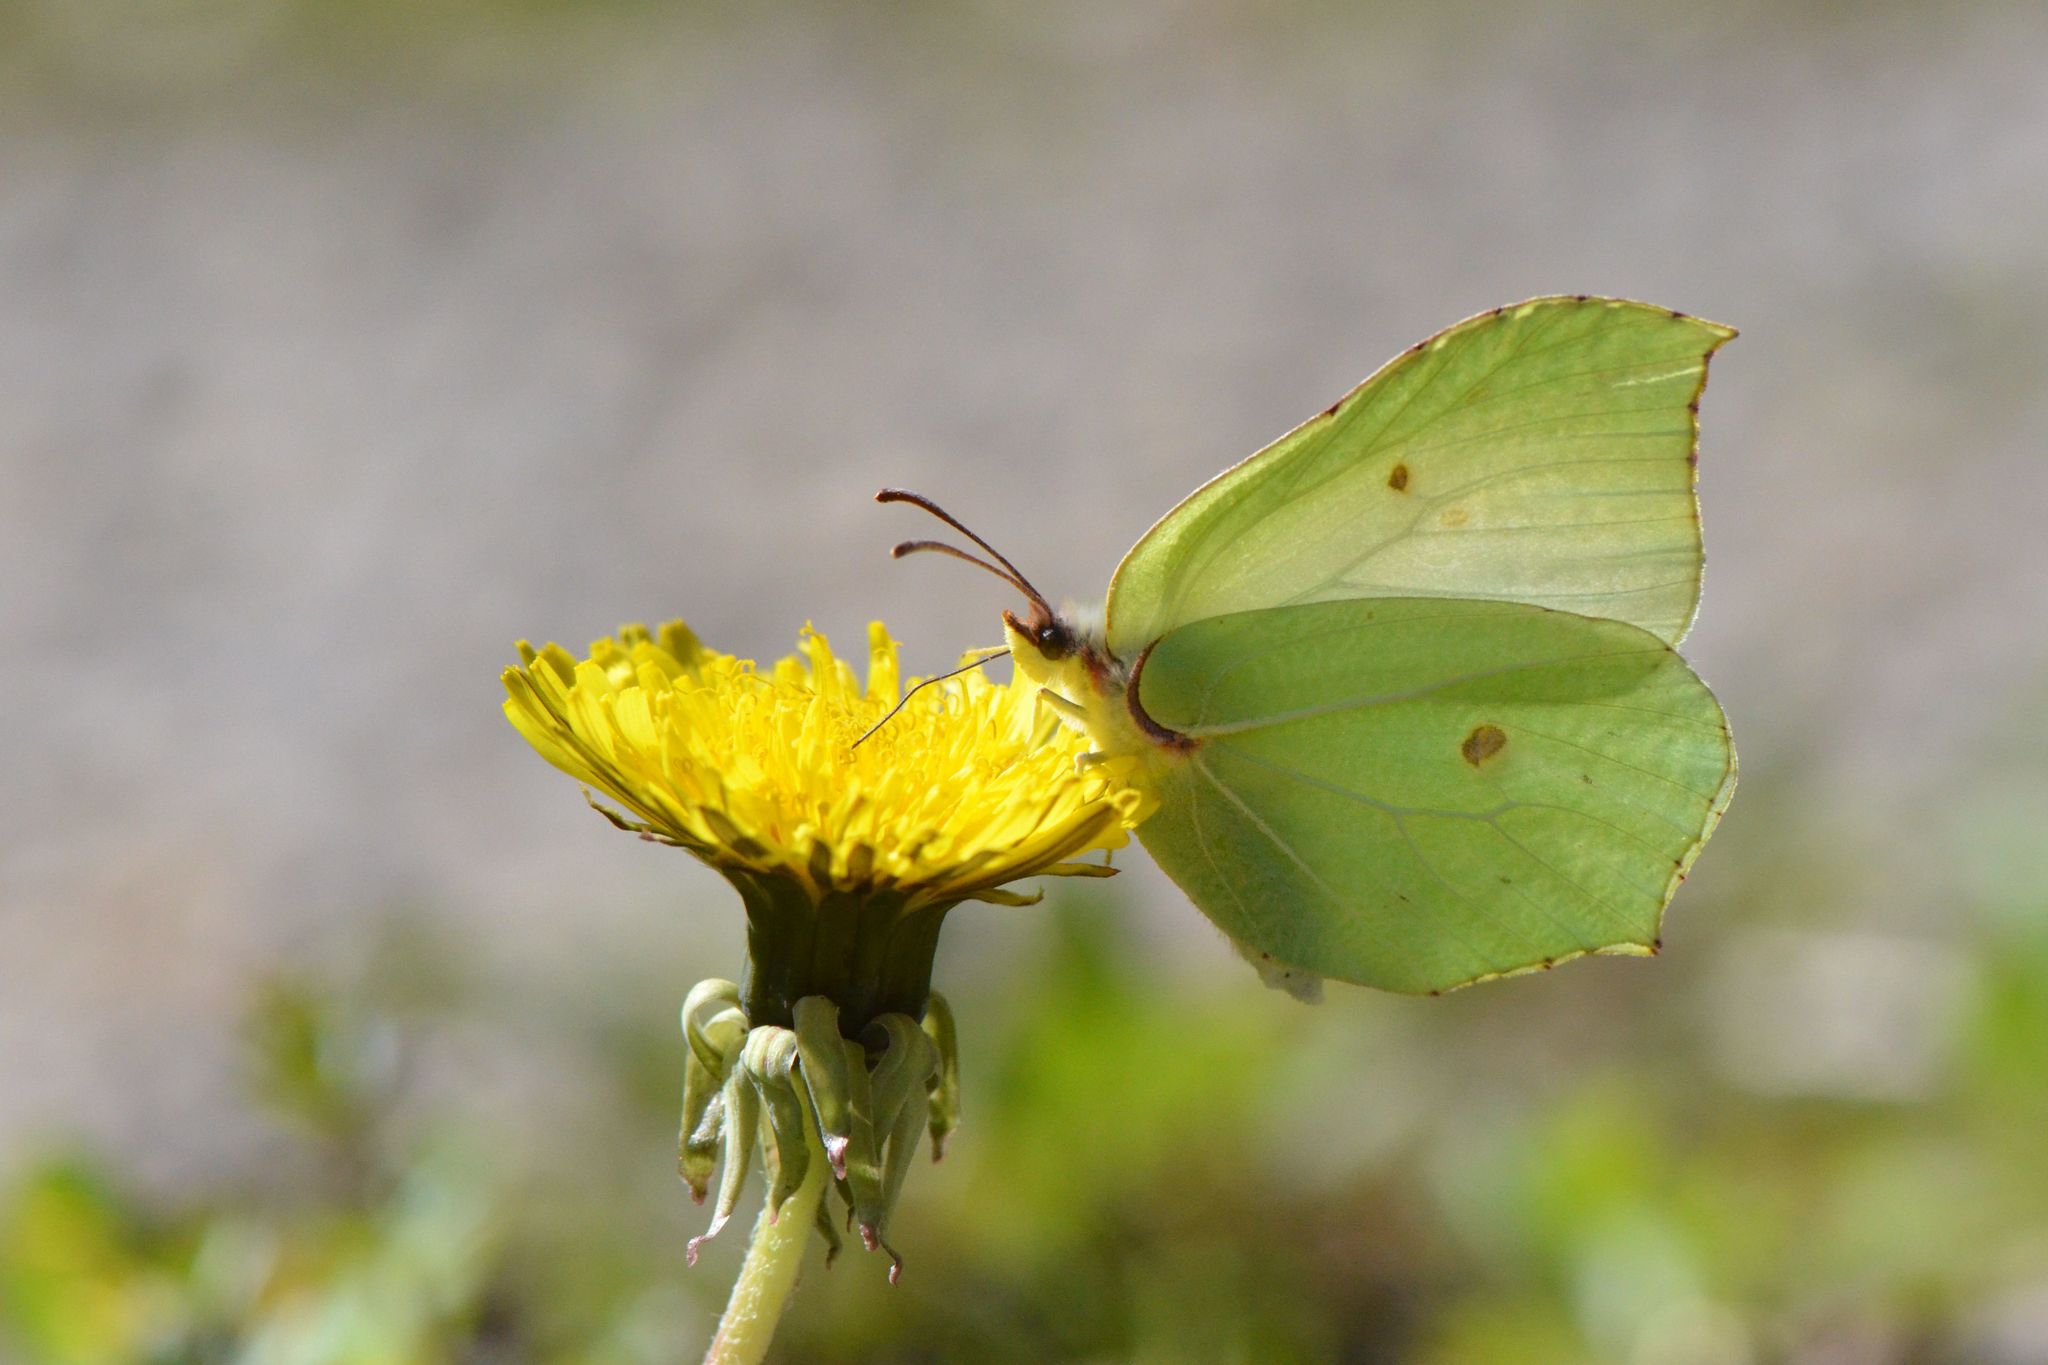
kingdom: Animalia
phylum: Arthropoda
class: Insecta
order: Lepidoptera
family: Pieridae
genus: Gonepteryx
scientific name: Gonepteryx rhamni
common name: Brimstone
